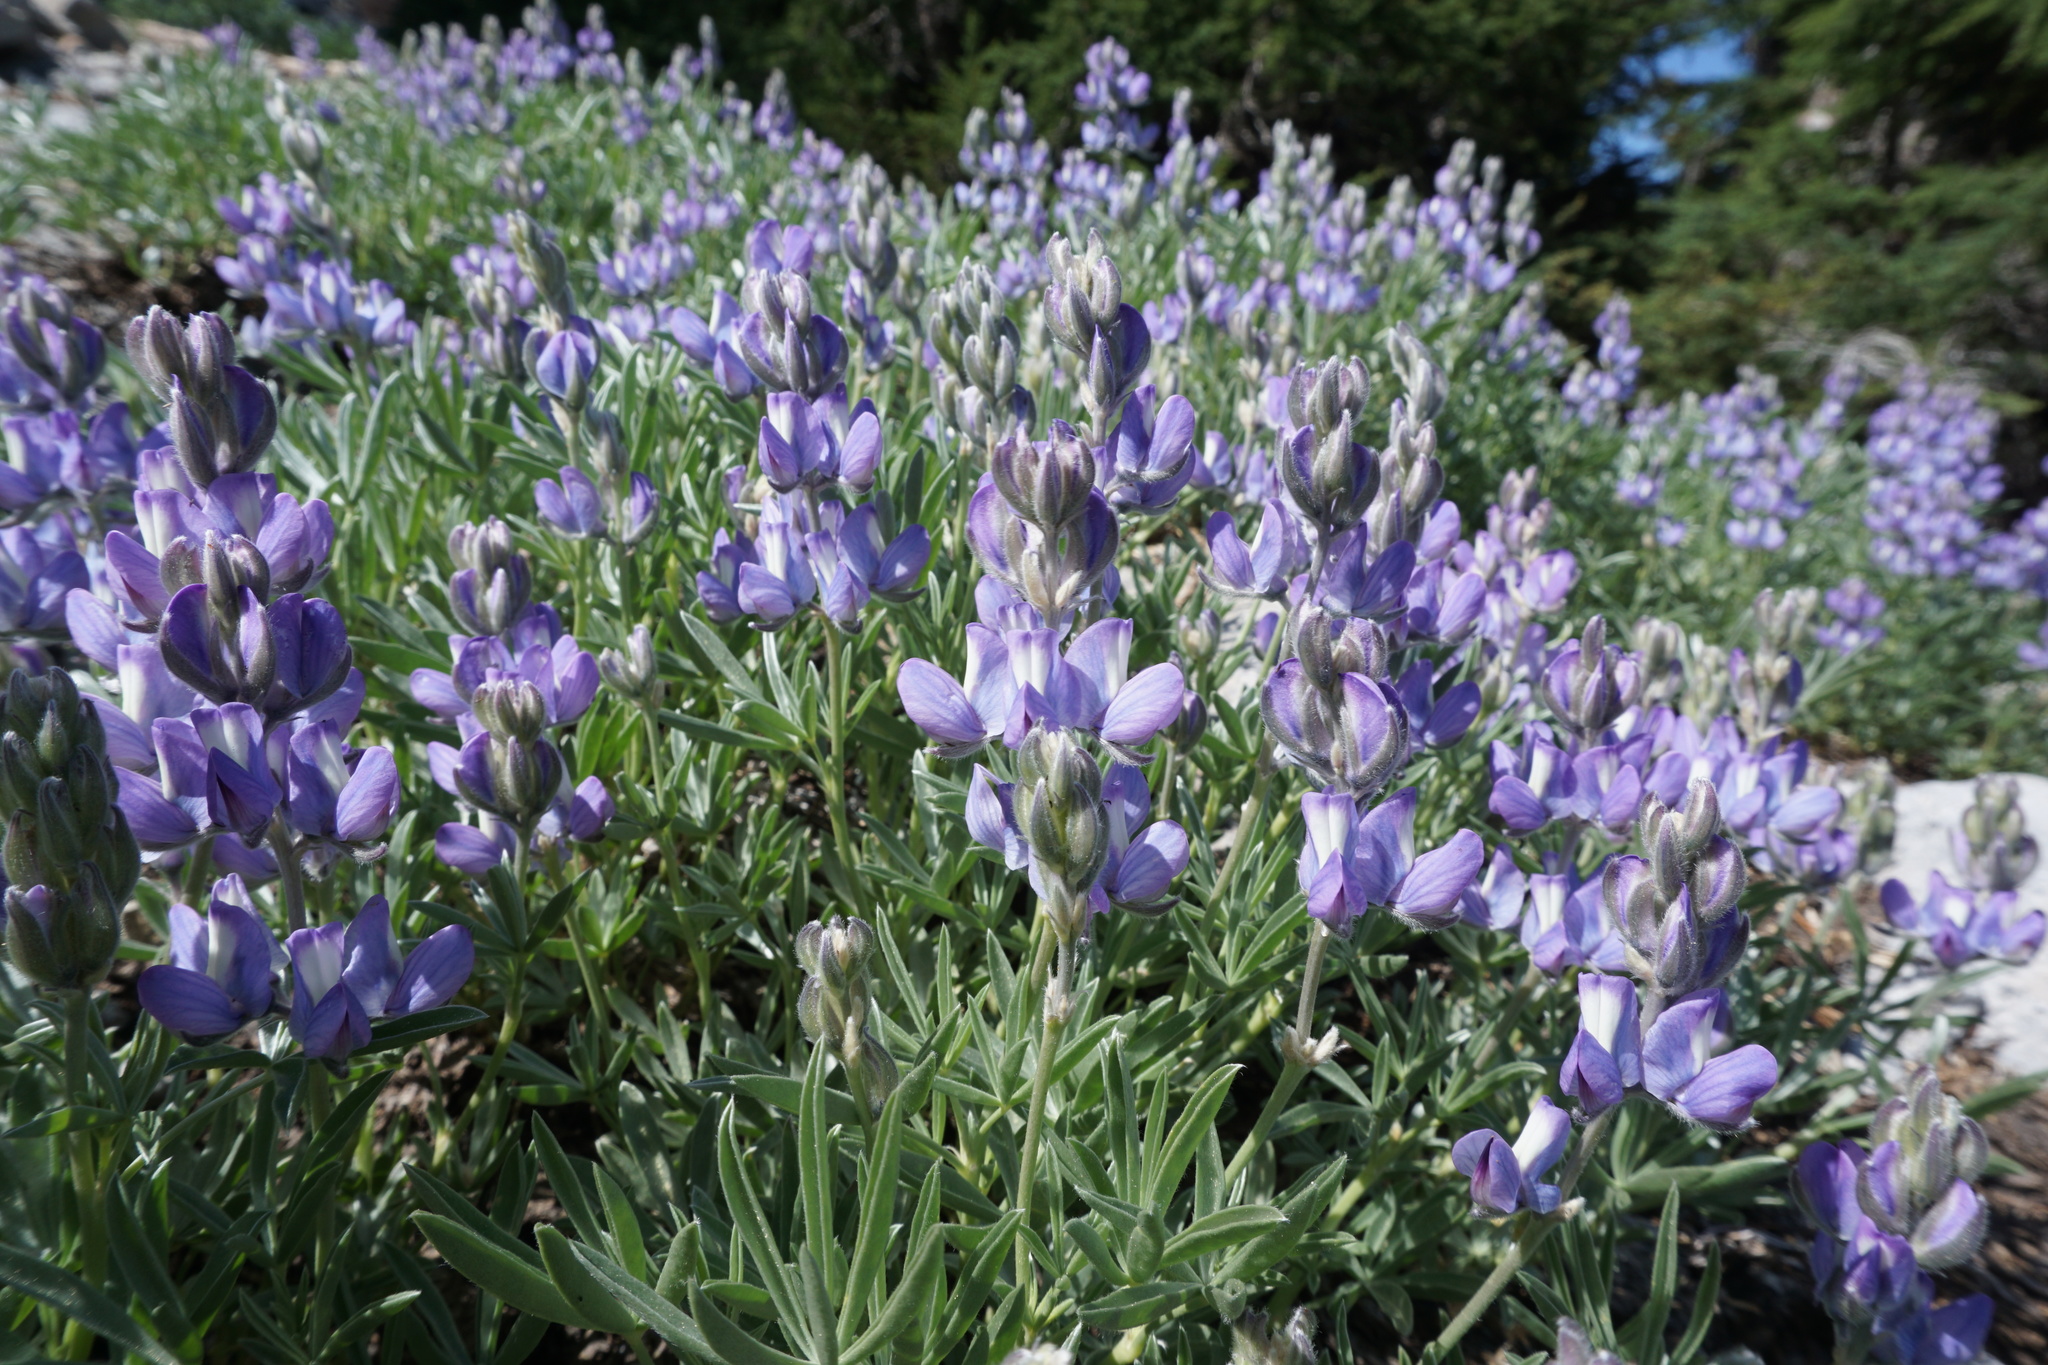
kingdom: Plantae
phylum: Tracheophyta
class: Magnoliopsida
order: Fabales
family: Fabaceae
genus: Lupinus
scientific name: Lupinus obtusilobus
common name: Blunt-lobe lupine
